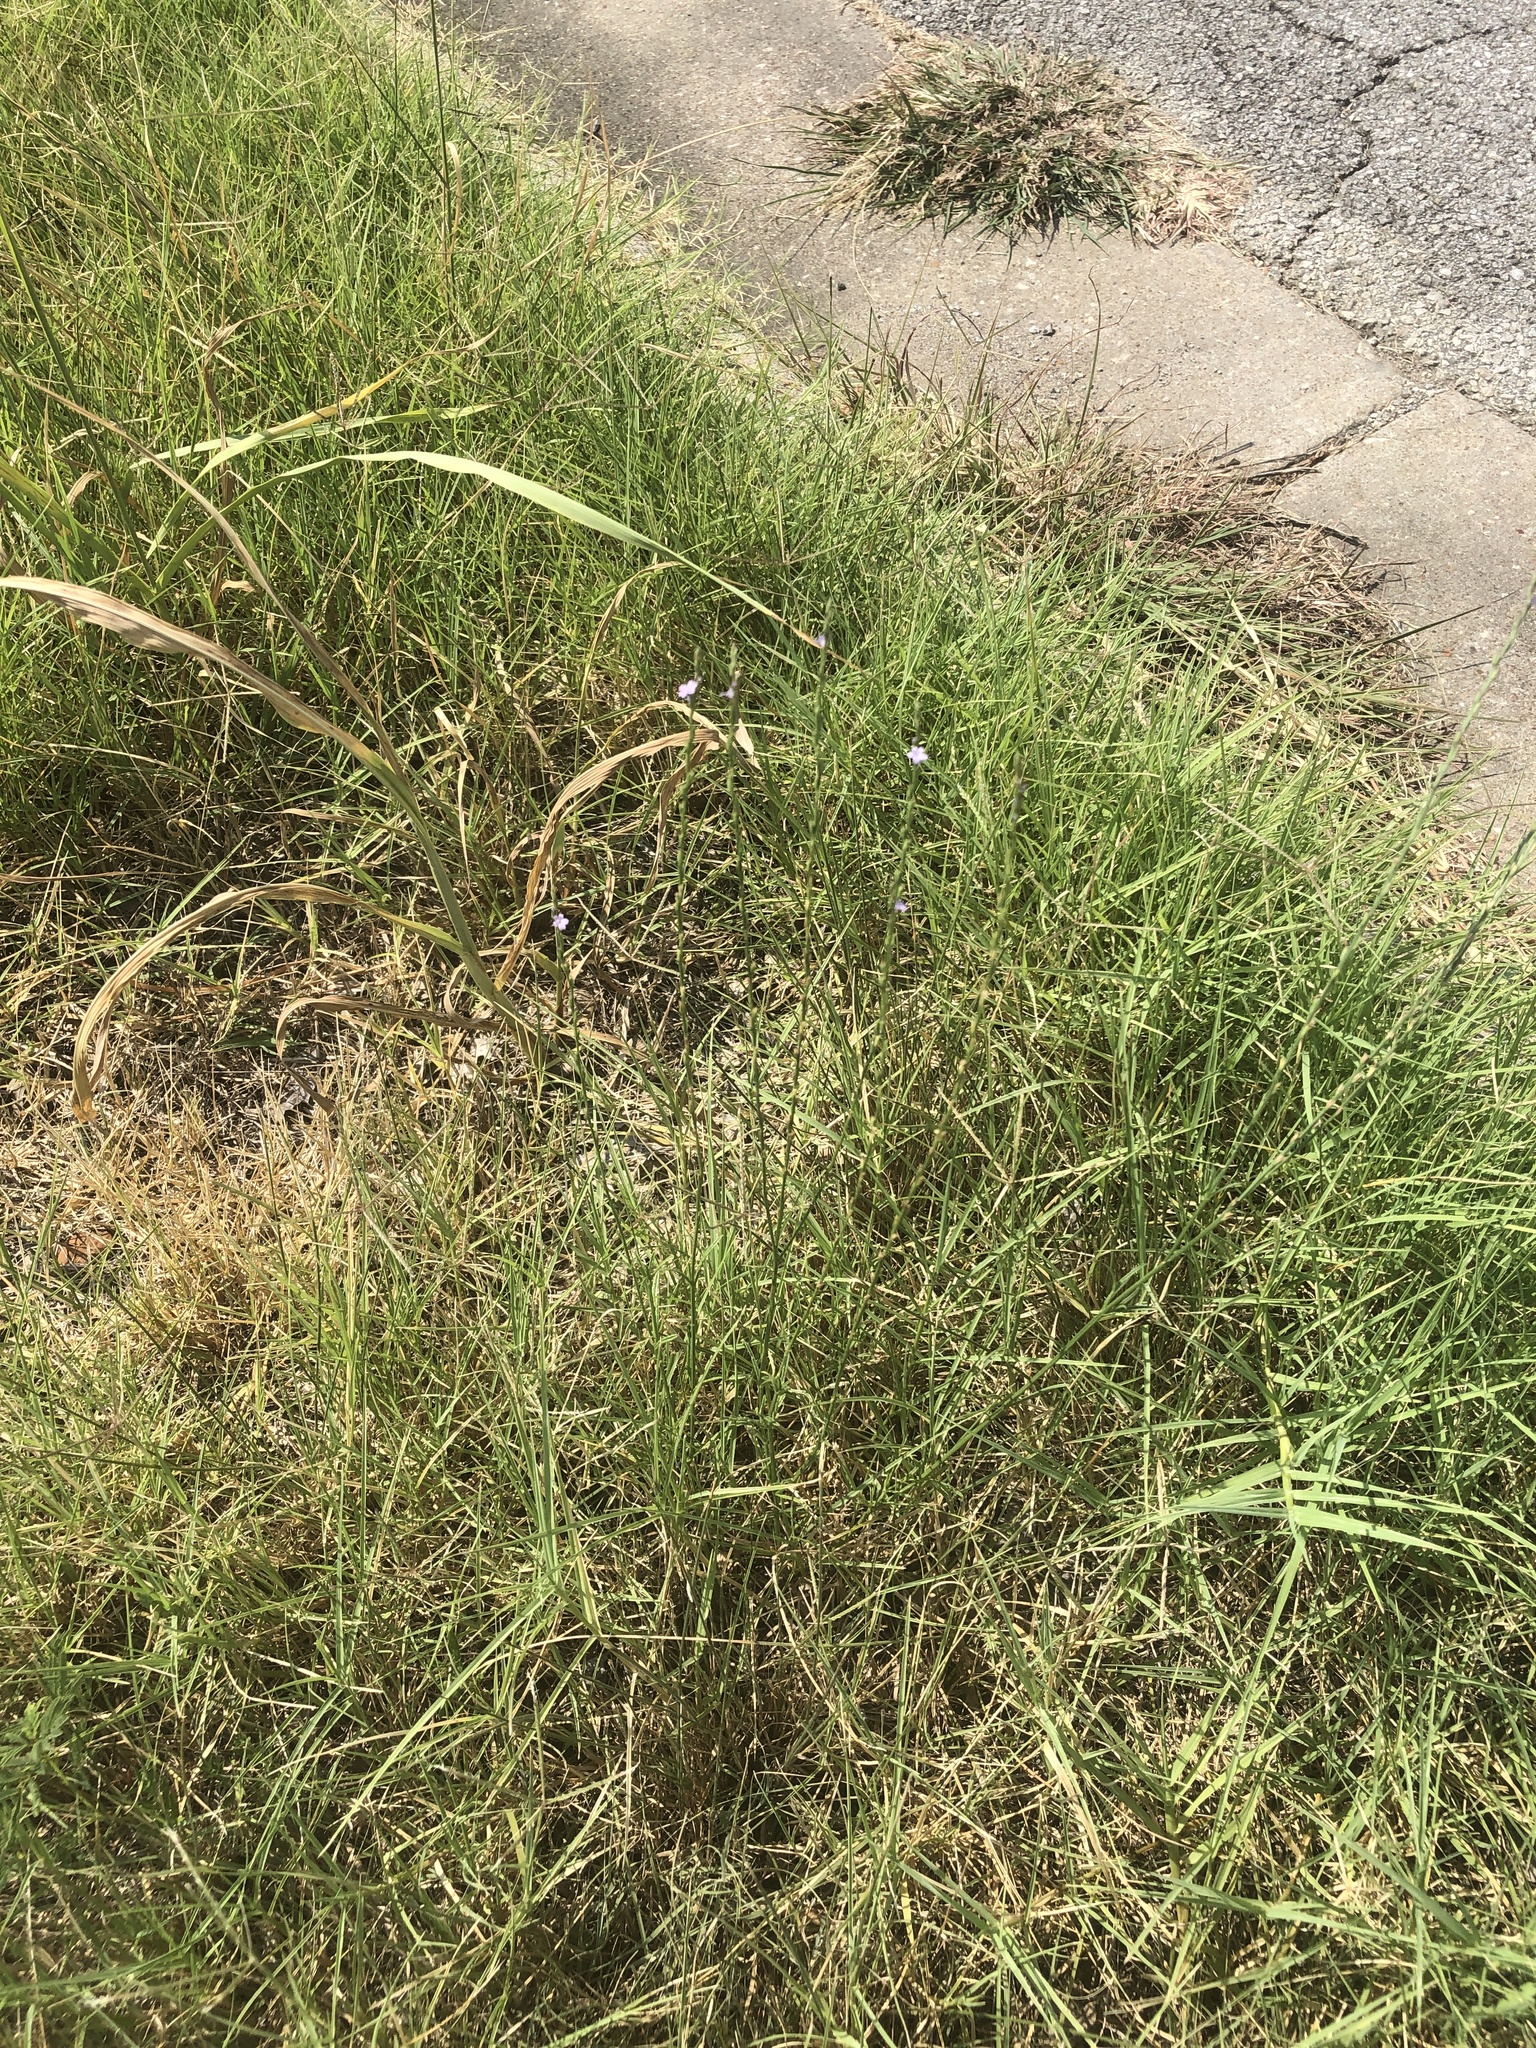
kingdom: Plantae
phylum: Tracheophyta
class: Magnoliopsida
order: Lamiales
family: Verbenaceae
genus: Verbena
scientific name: Verbena halei
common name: Texas vervain
